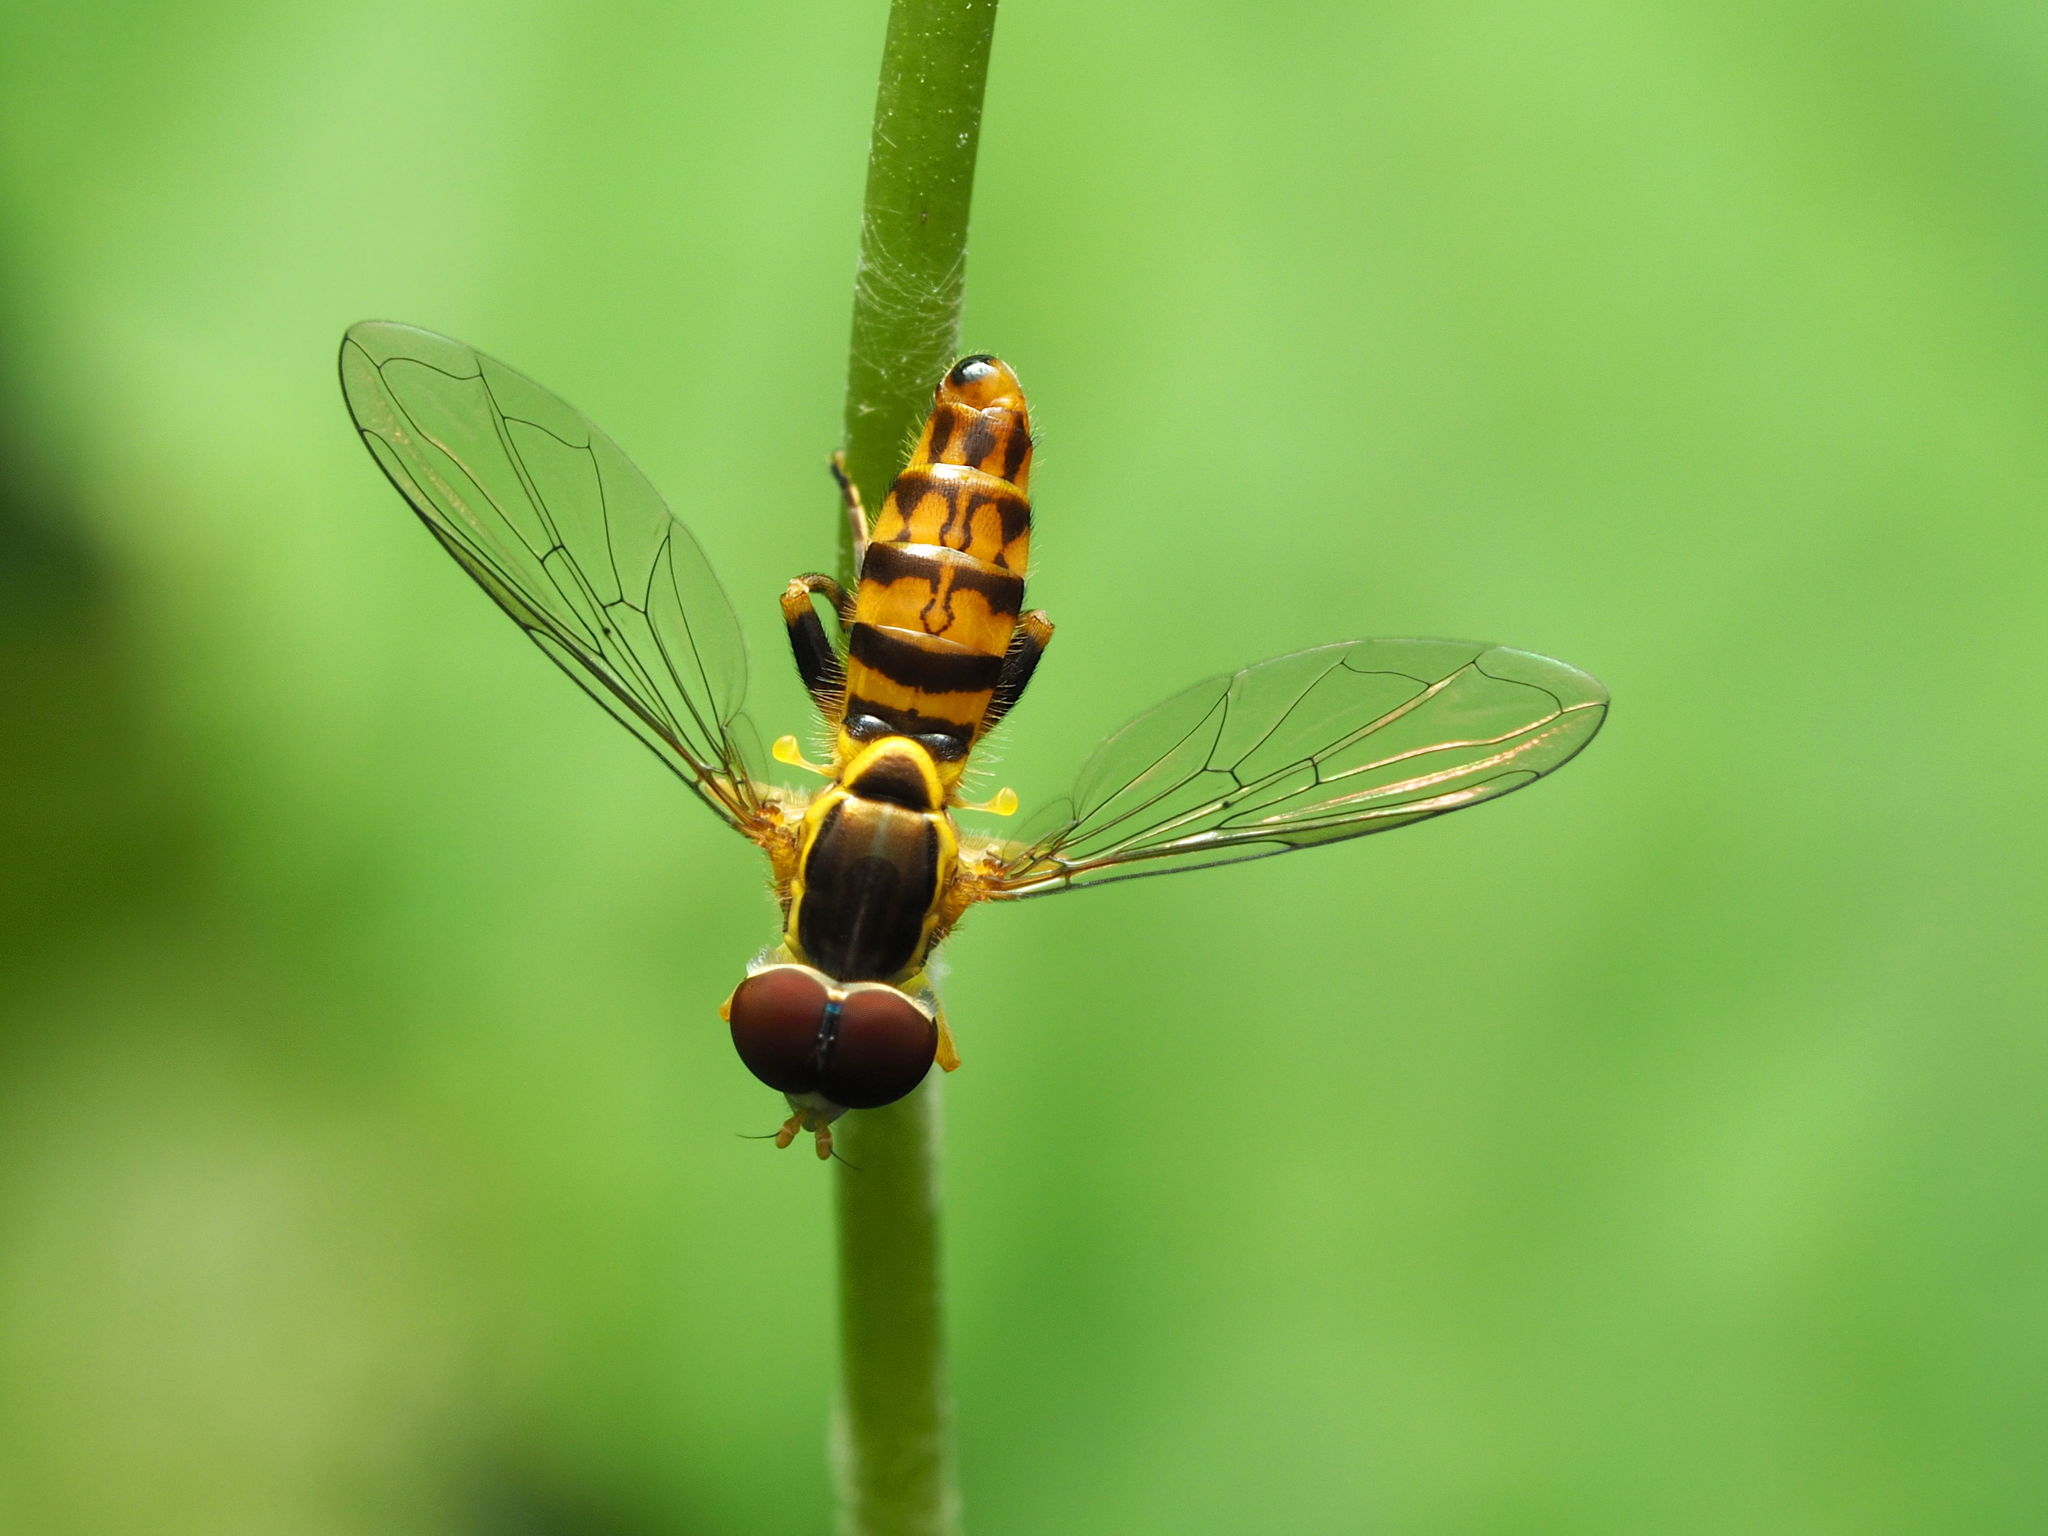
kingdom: Animalia
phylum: Arthropoda
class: Insecta
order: Diptera
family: Syrphidae
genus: Toxomerus
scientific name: Toxomerus geminatus
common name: Eastern calligrapher
